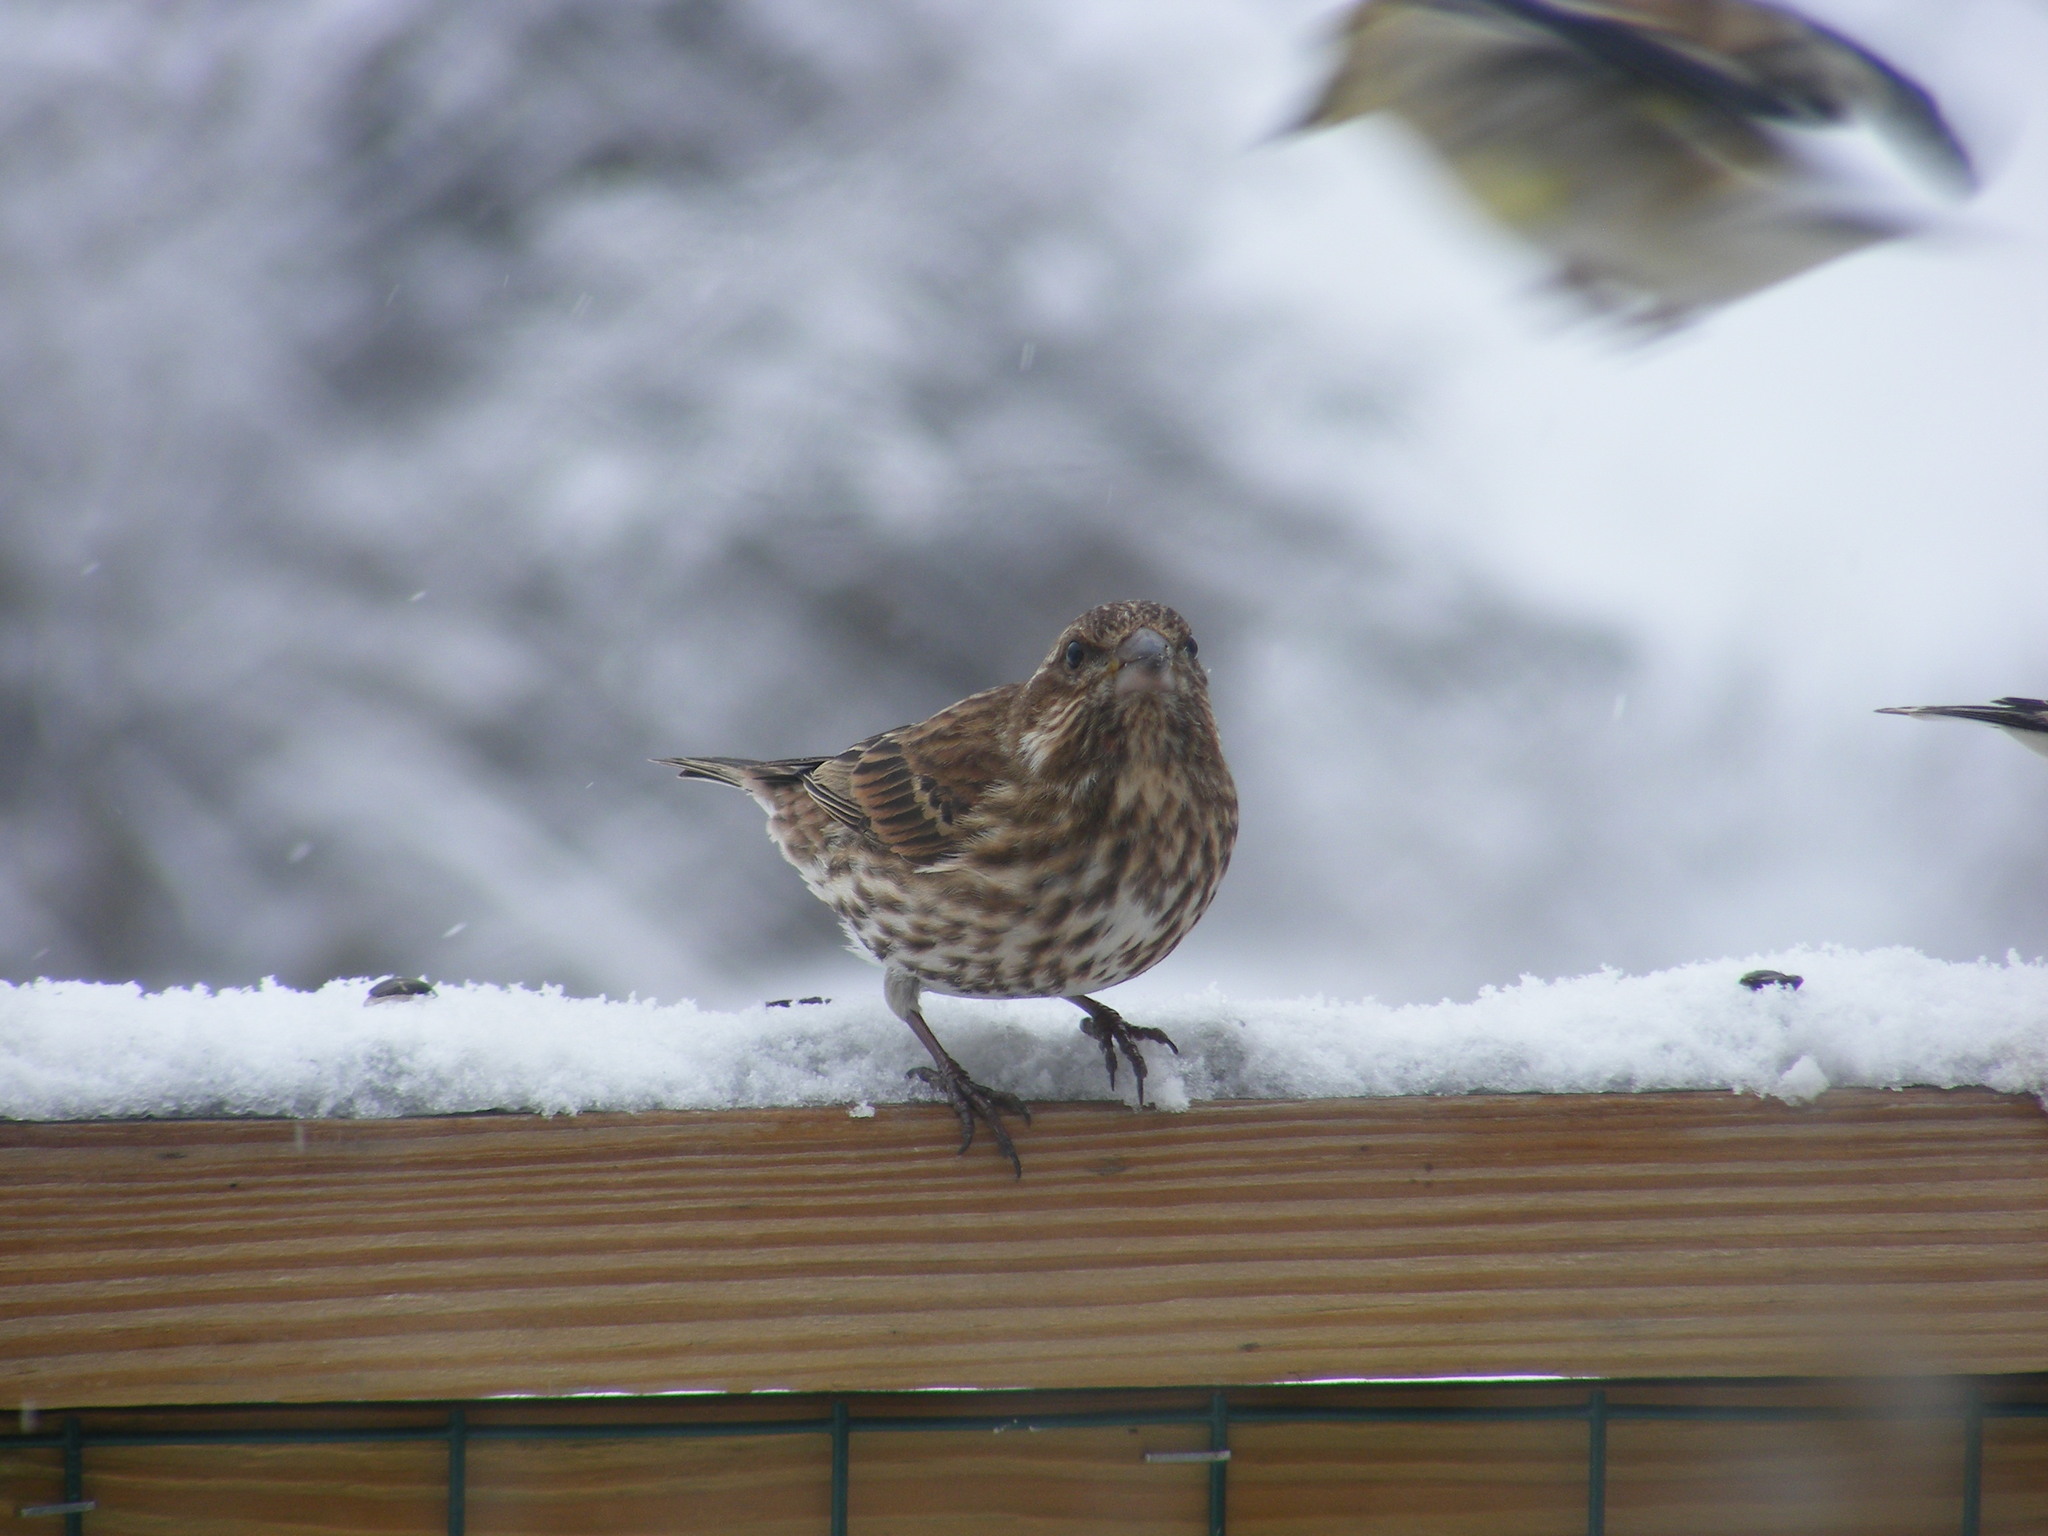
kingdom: Animalia
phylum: Chordata
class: Aves
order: Passeriformes
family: Fringillidae
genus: Haemorhous
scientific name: Haemorhous purpureus
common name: Purple finch
